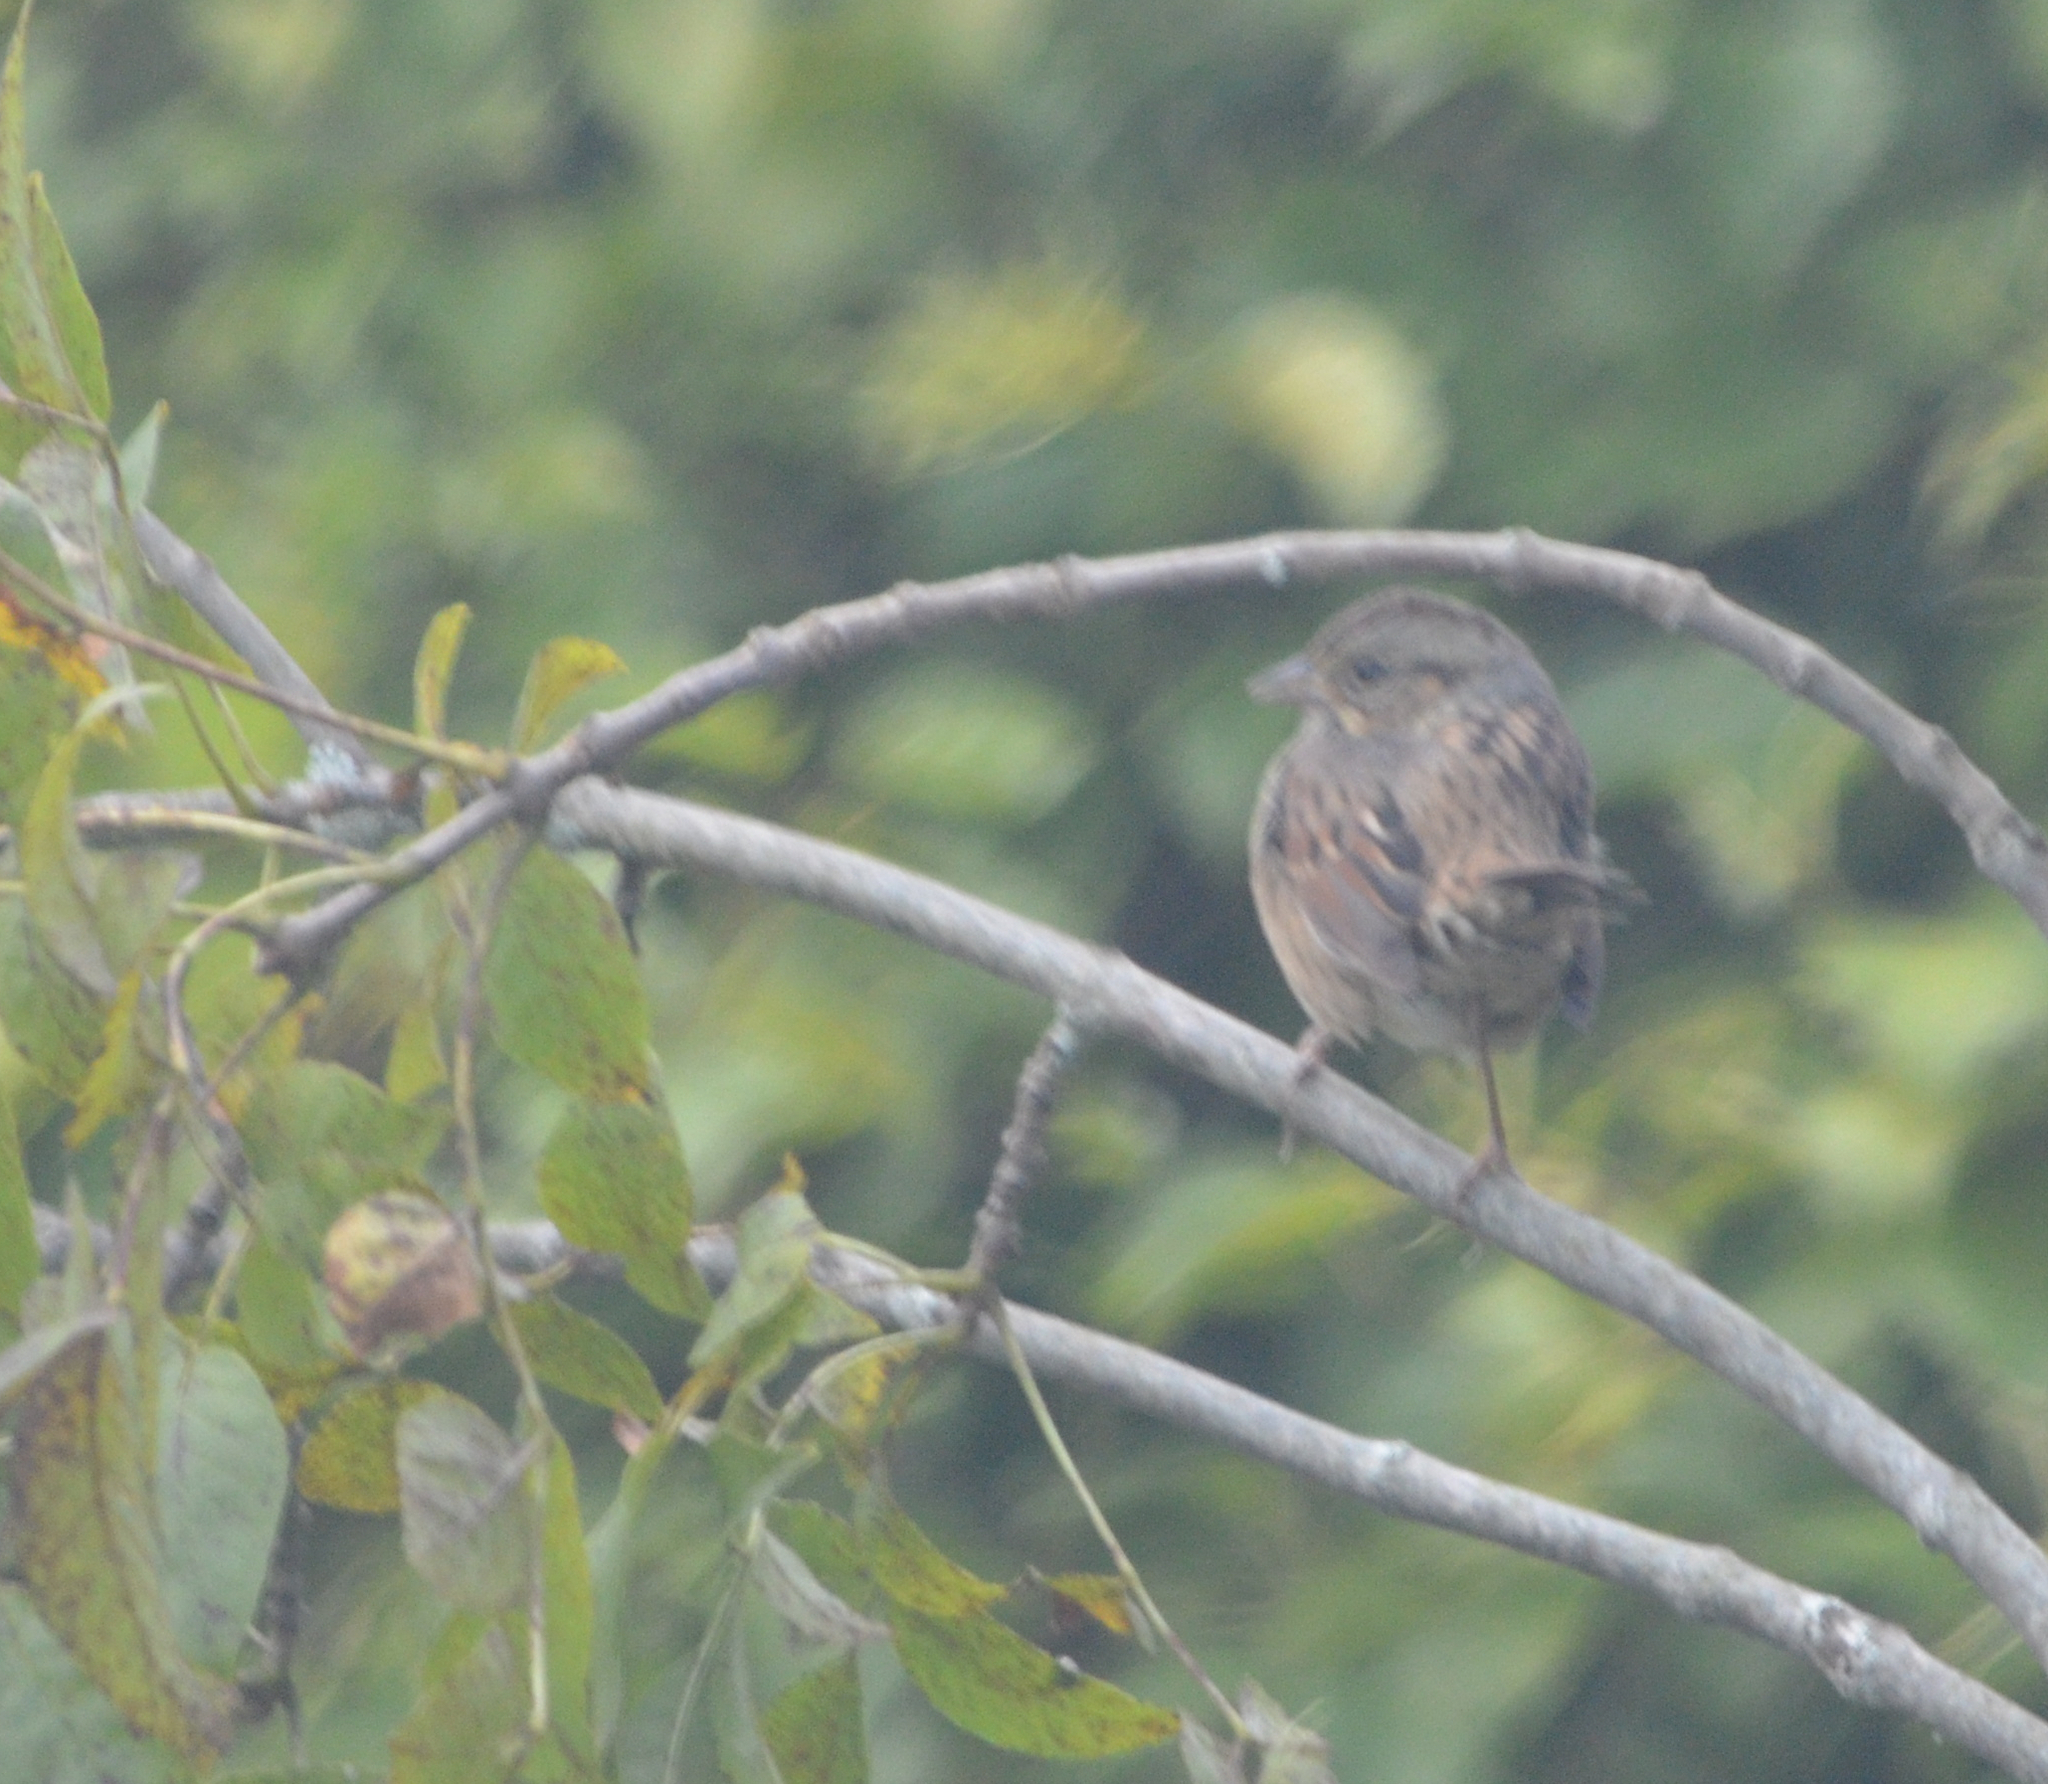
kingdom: Animalia
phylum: Chordata
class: Aves
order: Passeriformes
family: Passerellidae
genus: Melospiza
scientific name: Melospiza lincolnii
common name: Lincoln's sparrow
